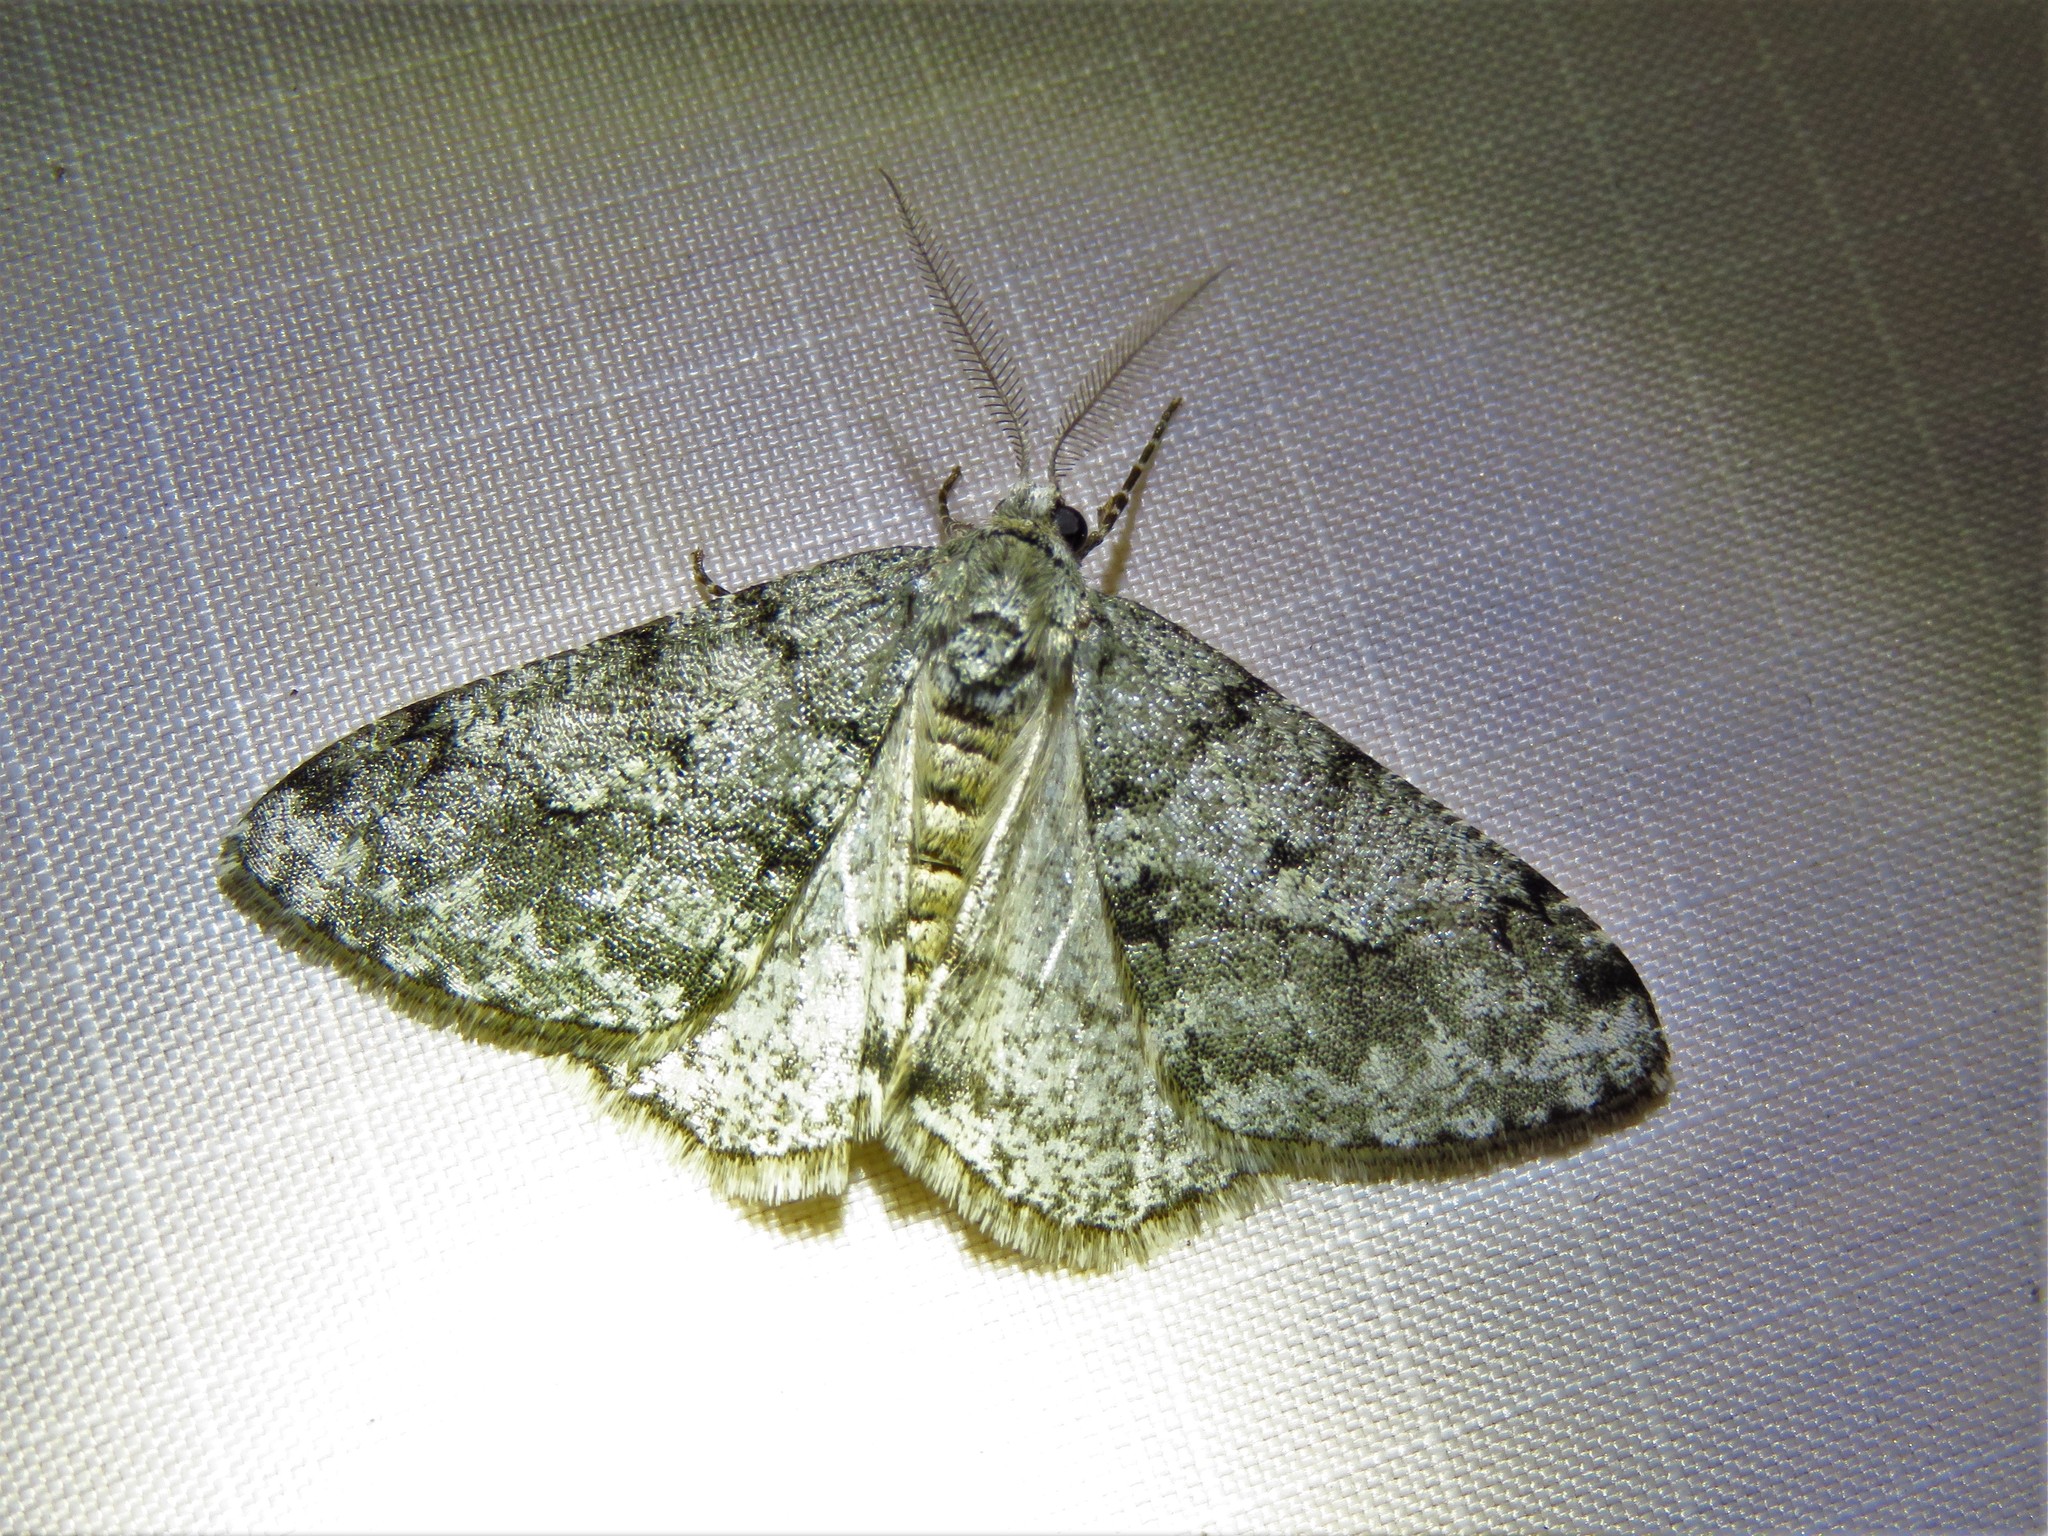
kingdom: Animalia
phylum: Arthropoda
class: Insecta
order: Lepidoptera
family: Geometridae
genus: Phigalia
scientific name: Phigalia strigataria
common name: Small phigalia
